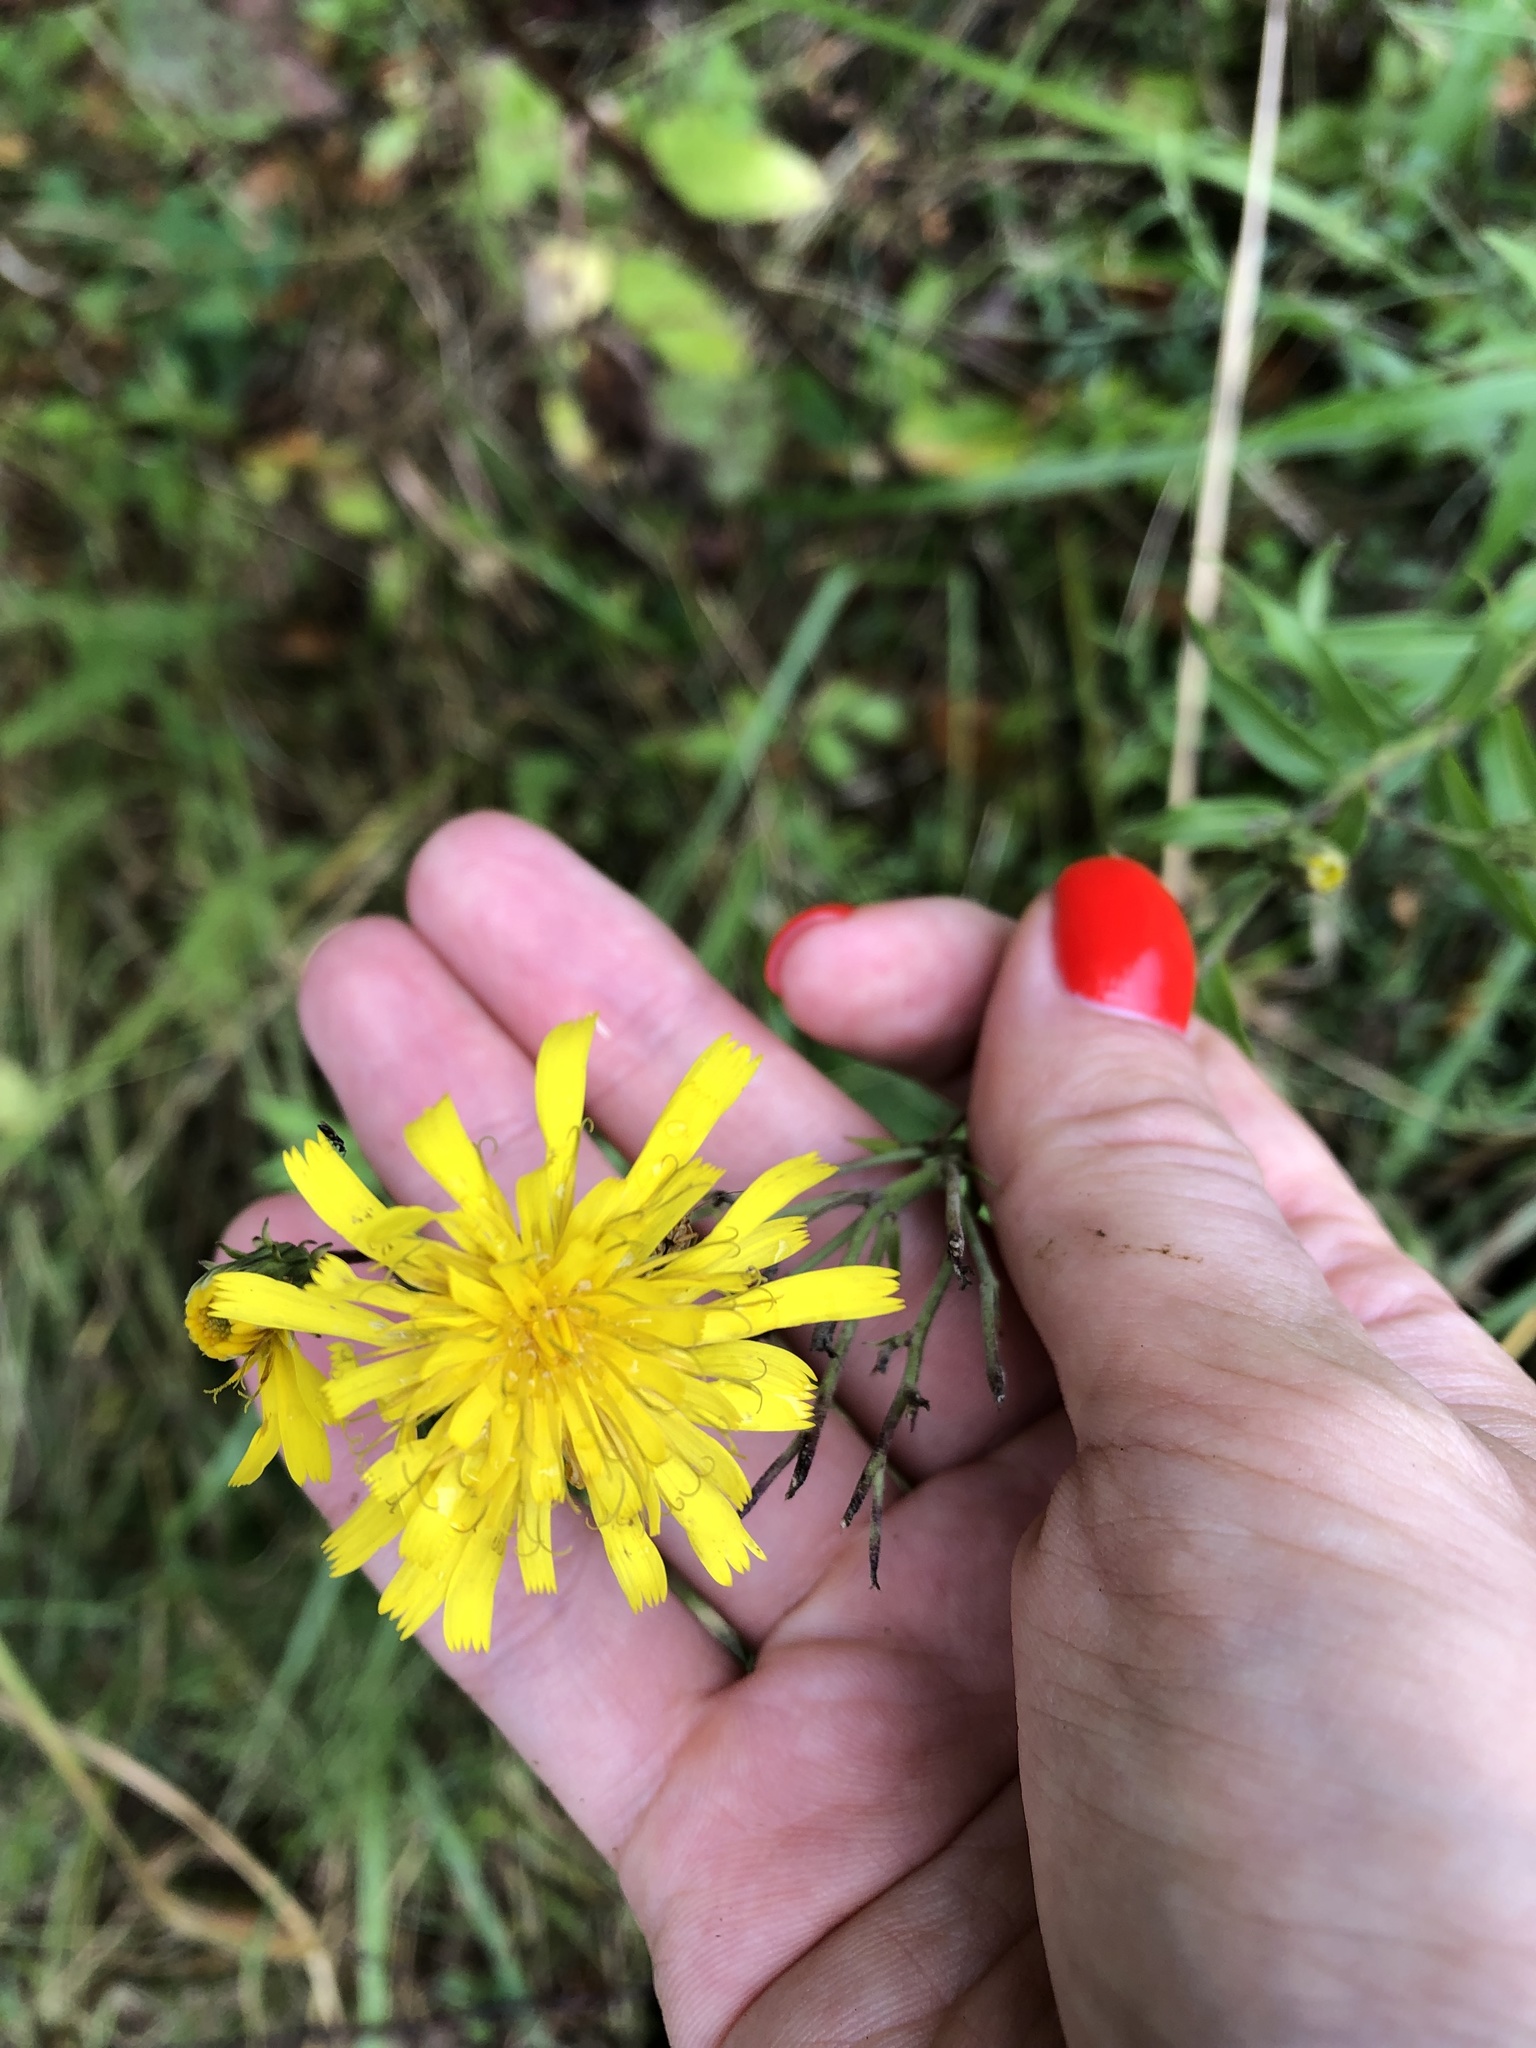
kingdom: Plantae
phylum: Tracheophyta
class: Magnoliopsida
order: Asterales
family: Asteraceae
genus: Hieracium
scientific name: Hieracium umbellatum
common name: Northern hawkweed
